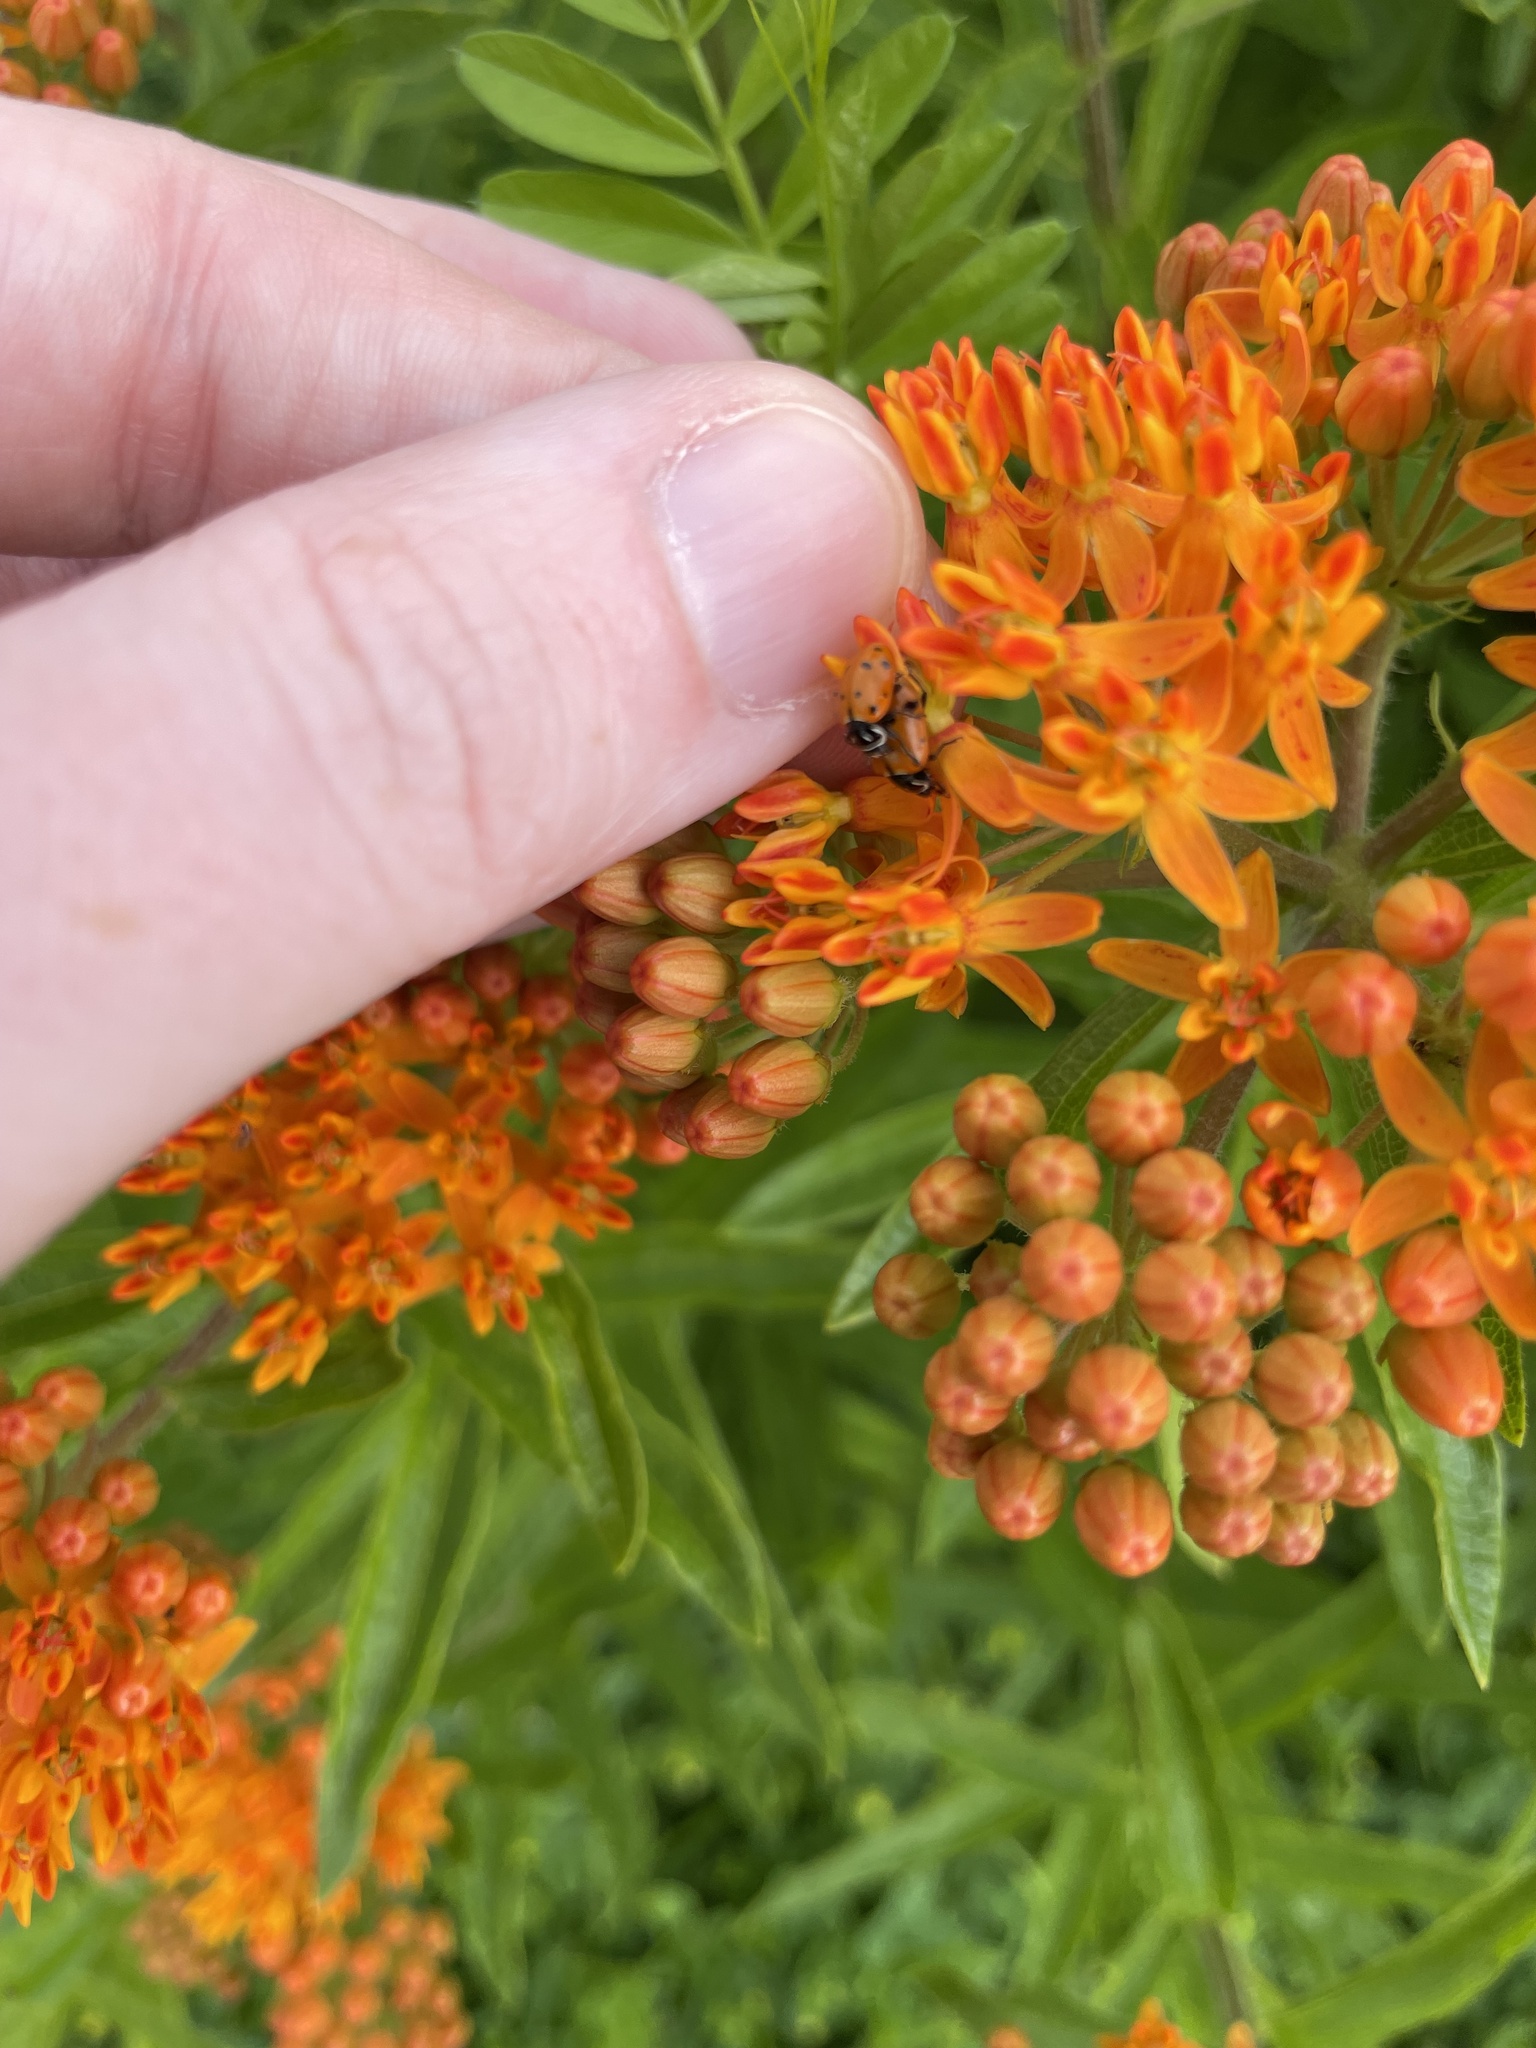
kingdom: Animalia
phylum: Arthropoda
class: Insecta
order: Coleoptera
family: Coccinellidae
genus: Hippodamia
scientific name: Hippodamia convergens
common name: Convergent lady beetle
